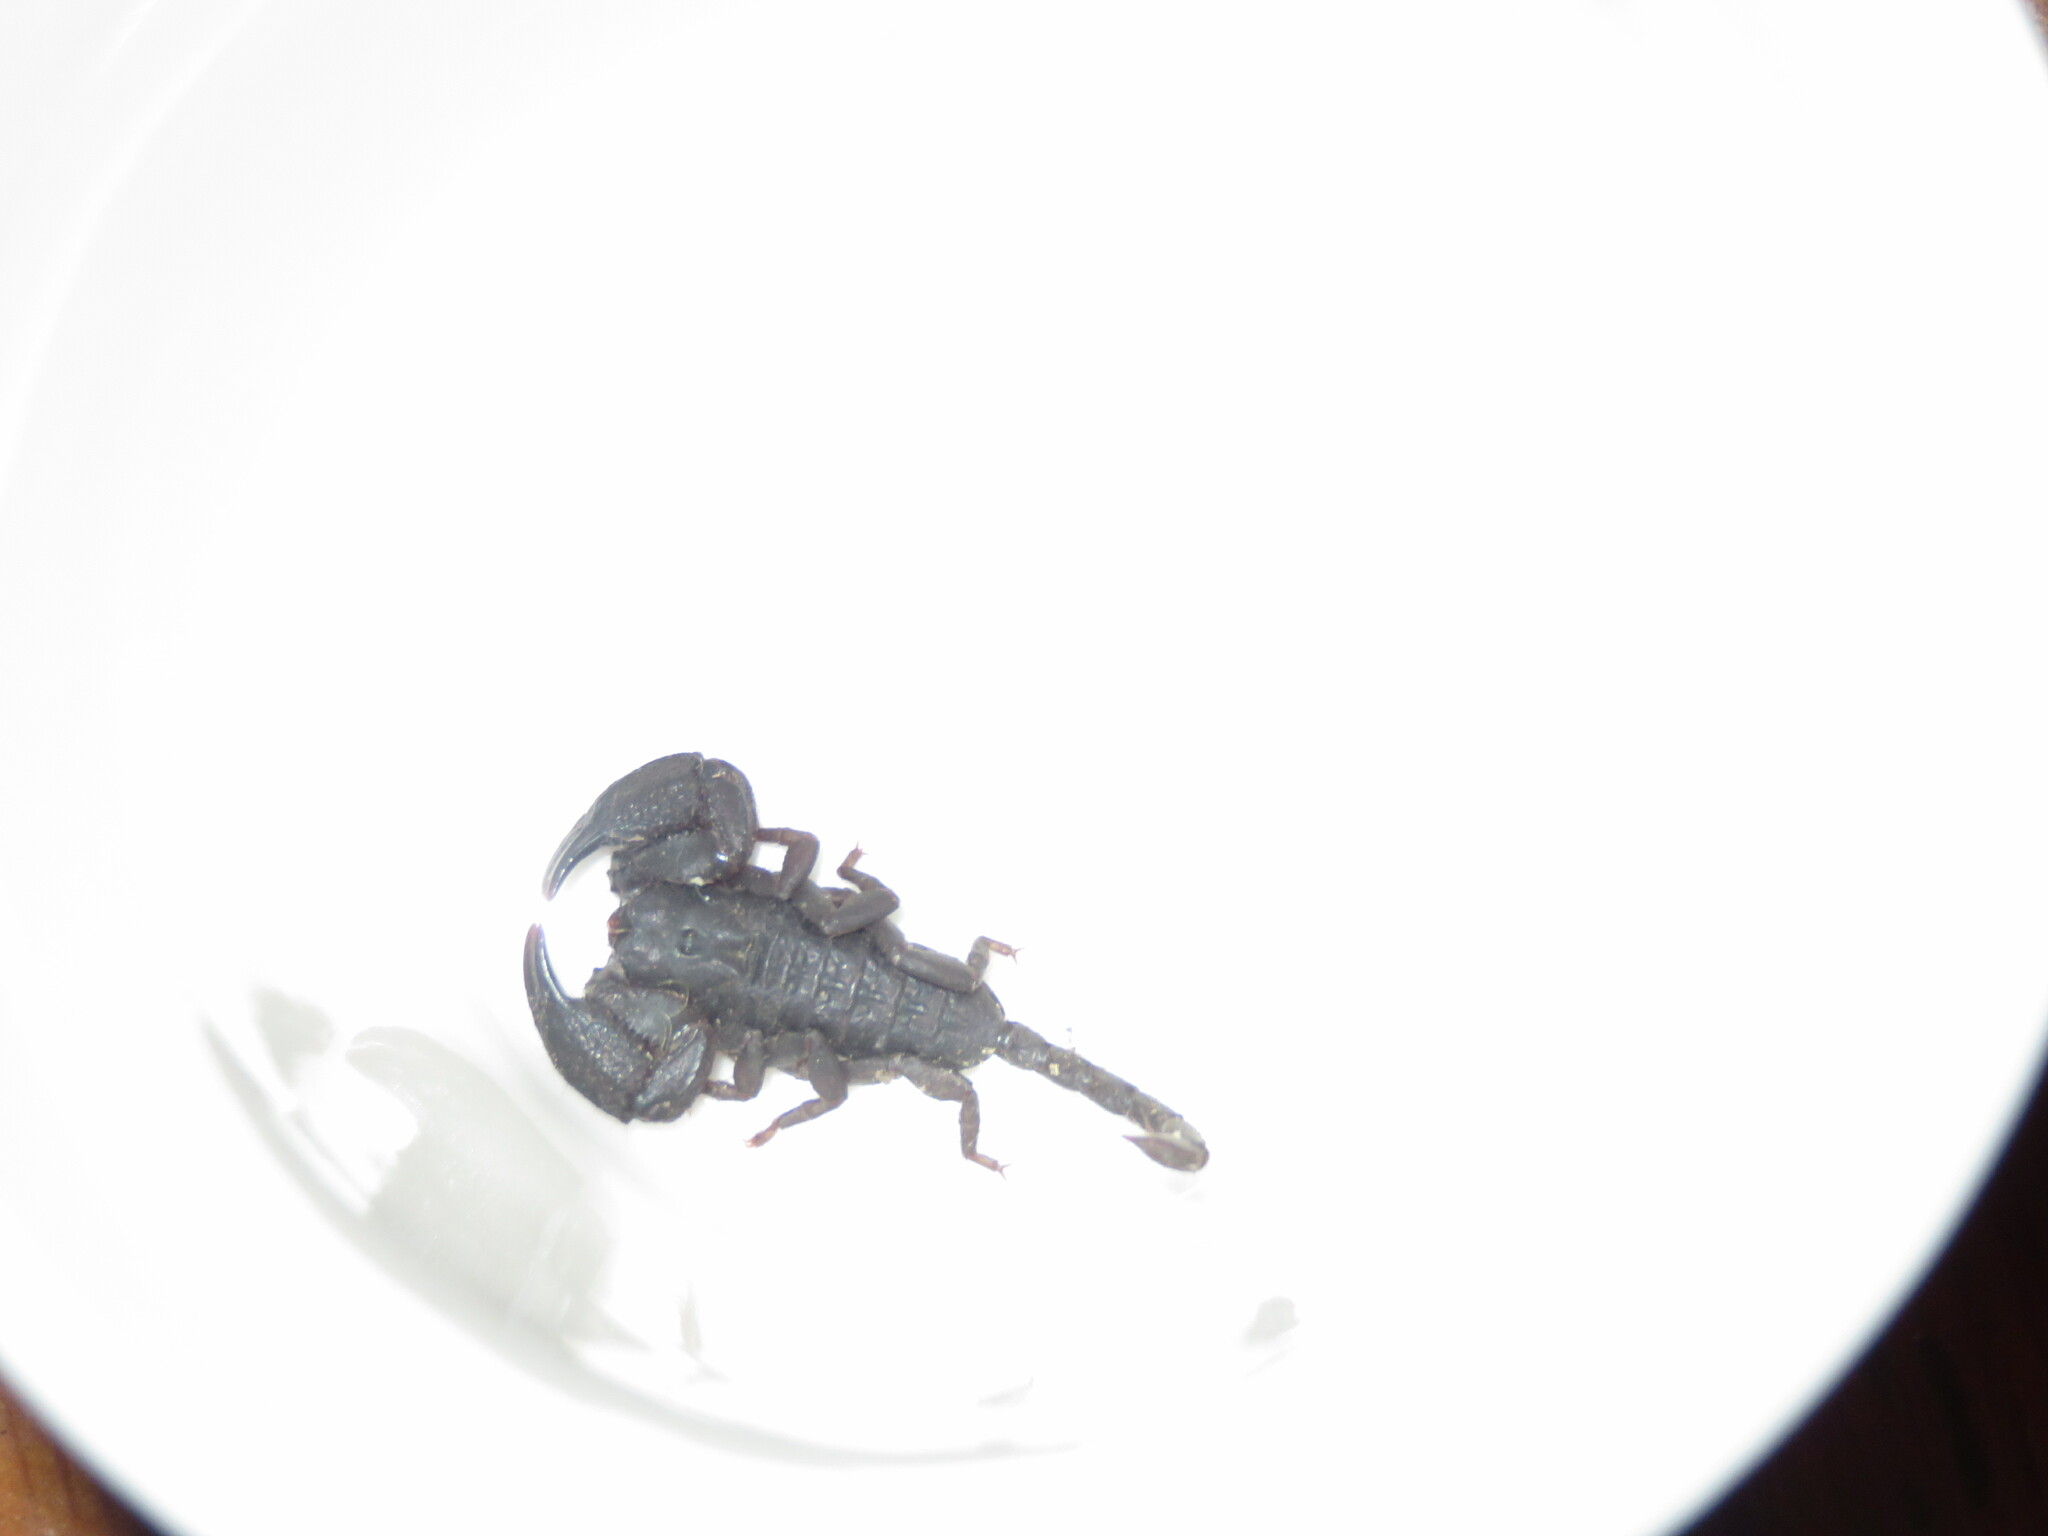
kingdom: Animalia
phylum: Arthropoda
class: Arachnida
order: Scorpiones
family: Hormuridae
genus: Opisthacanthus
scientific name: Opisthacanthus capensis
